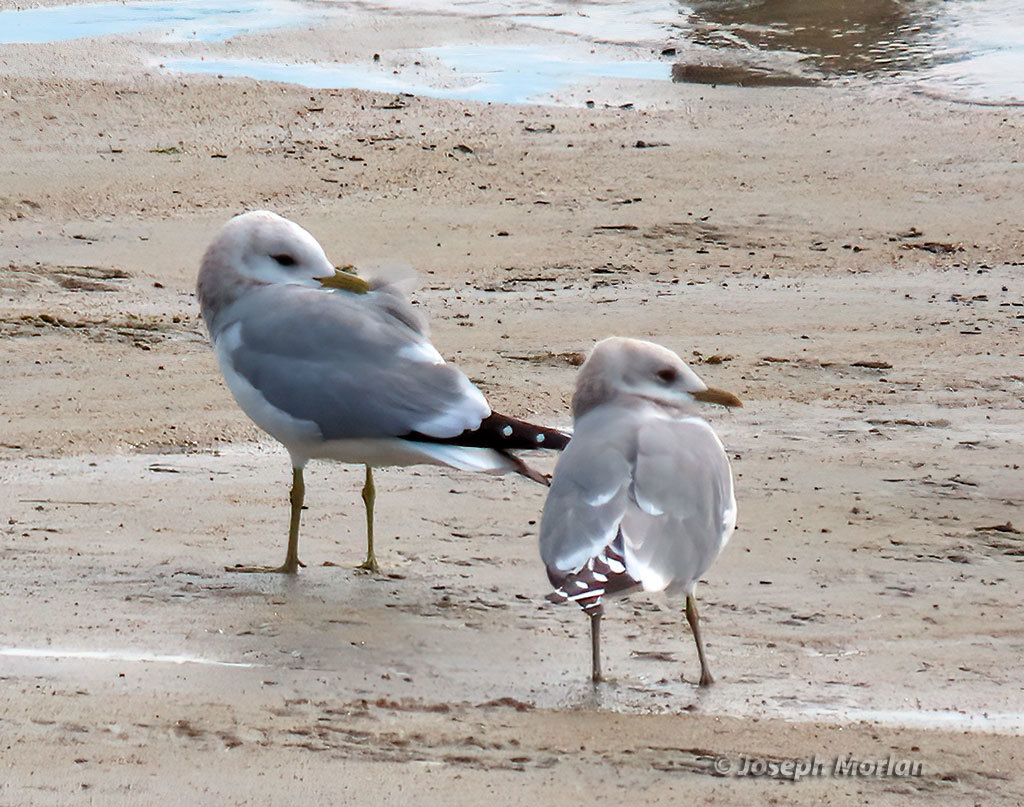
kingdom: Animalia
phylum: Chordata
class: Aves
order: Charadriiformes
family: Laridae
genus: Larus
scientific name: Larus brachyrhynchus
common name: Short-billed gull
